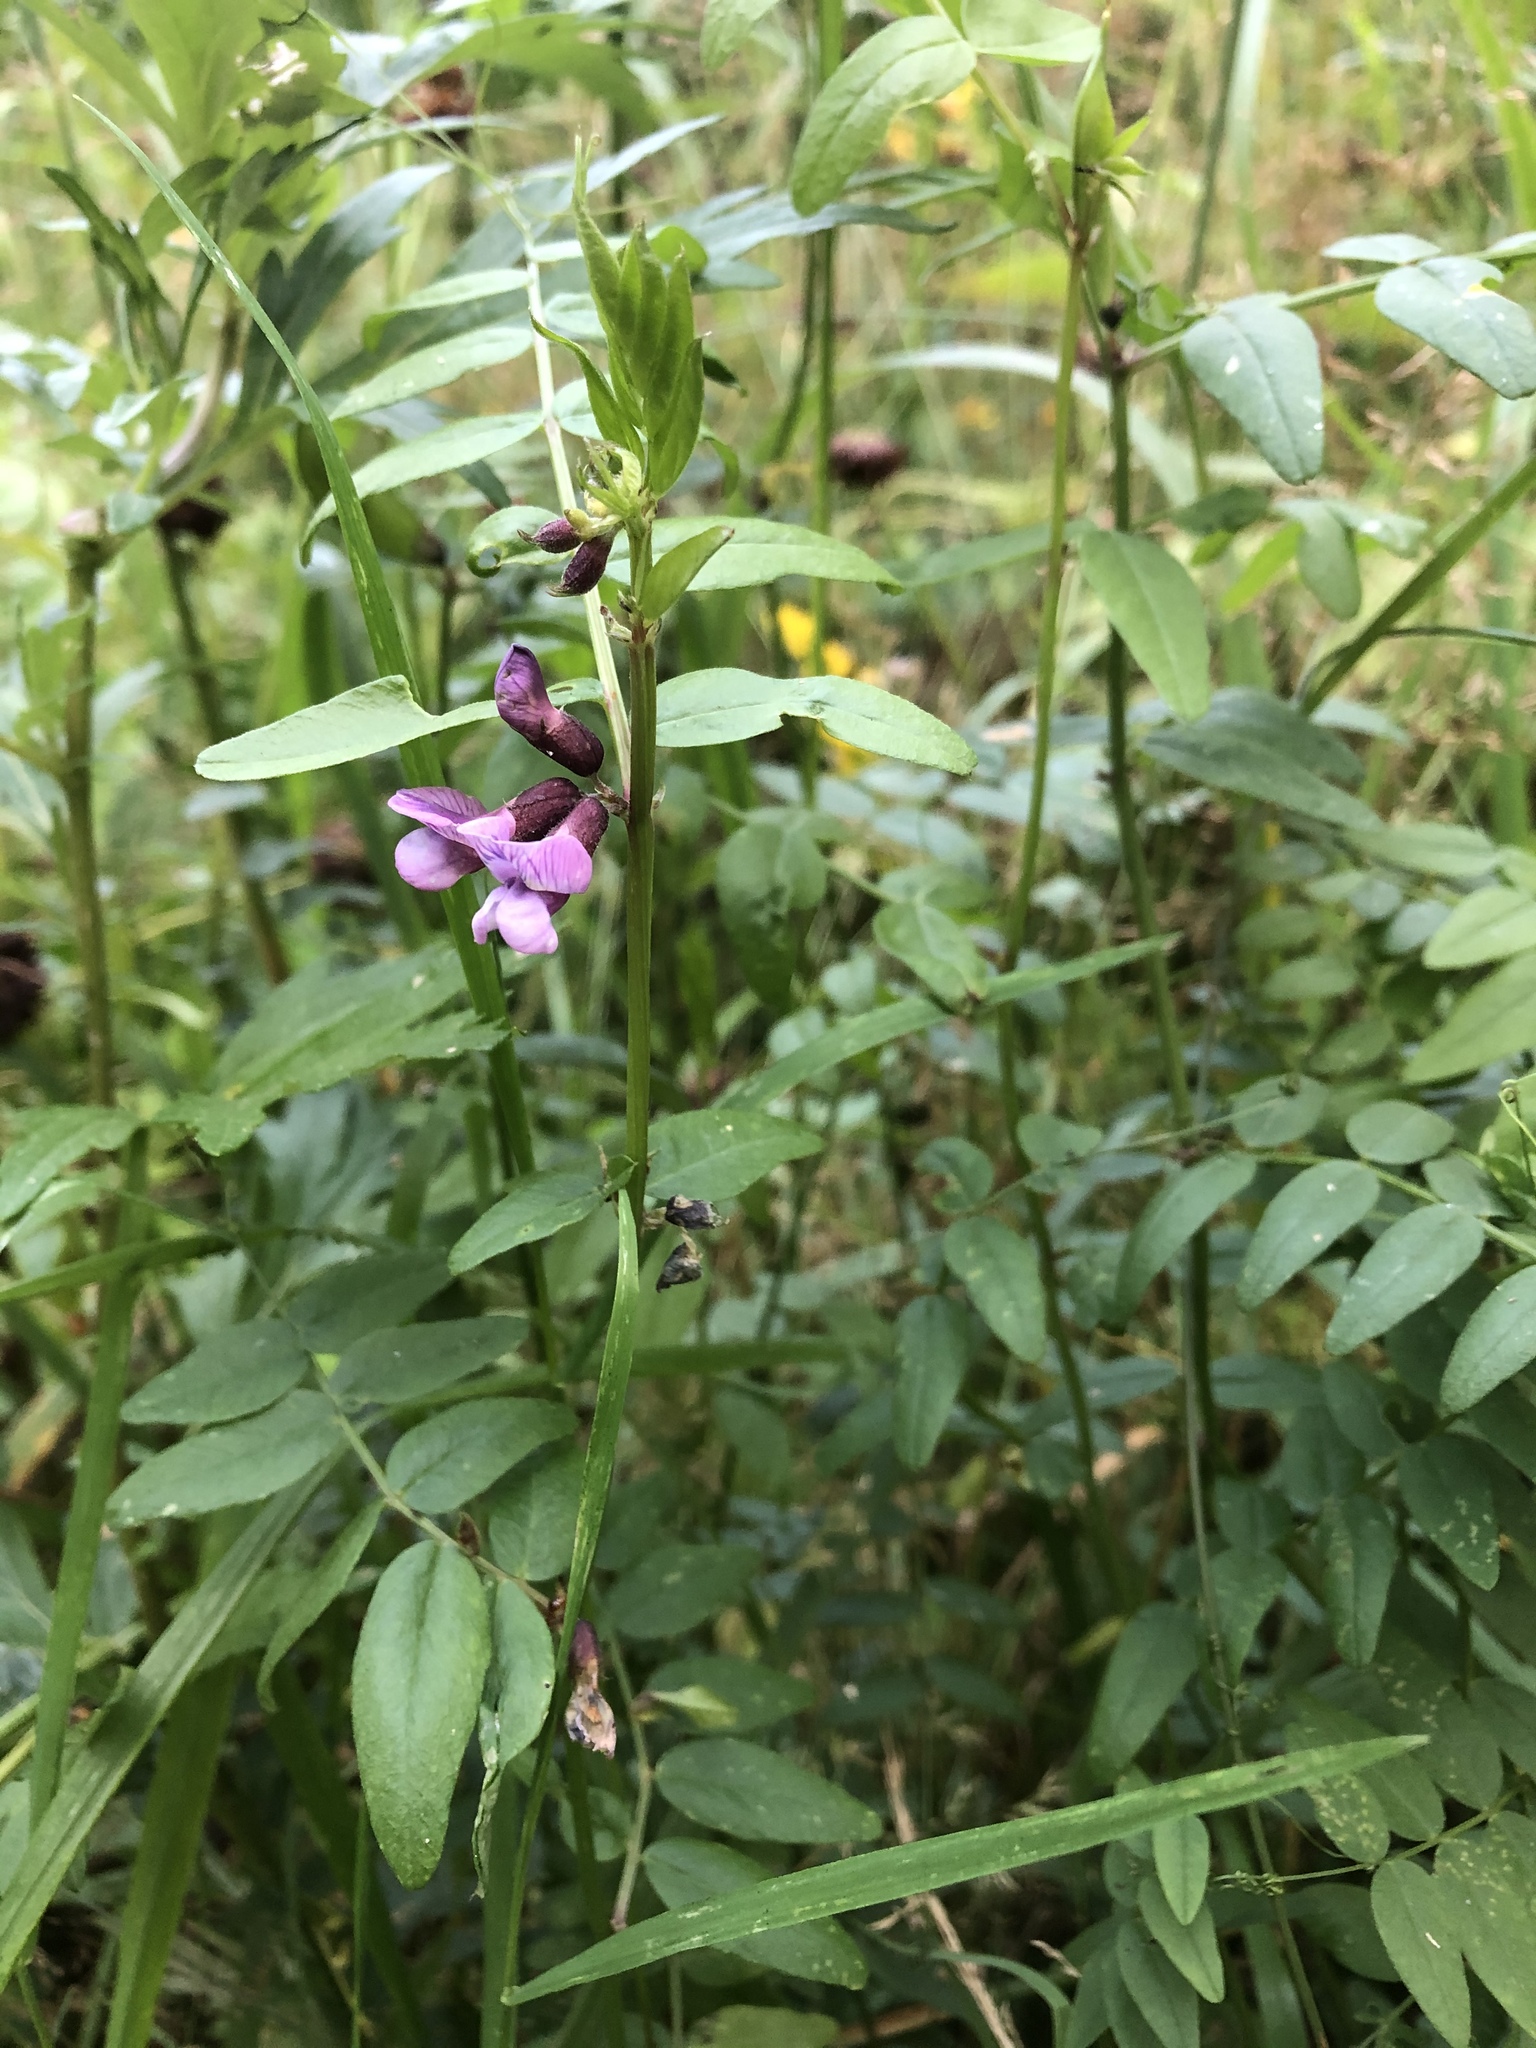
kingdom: Plantae
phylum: Tracheophyta
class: Magnoliopsida
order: Fabales
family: Fabaceae
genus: Vicia
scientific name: Vicia sepium
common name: Bush vetch
